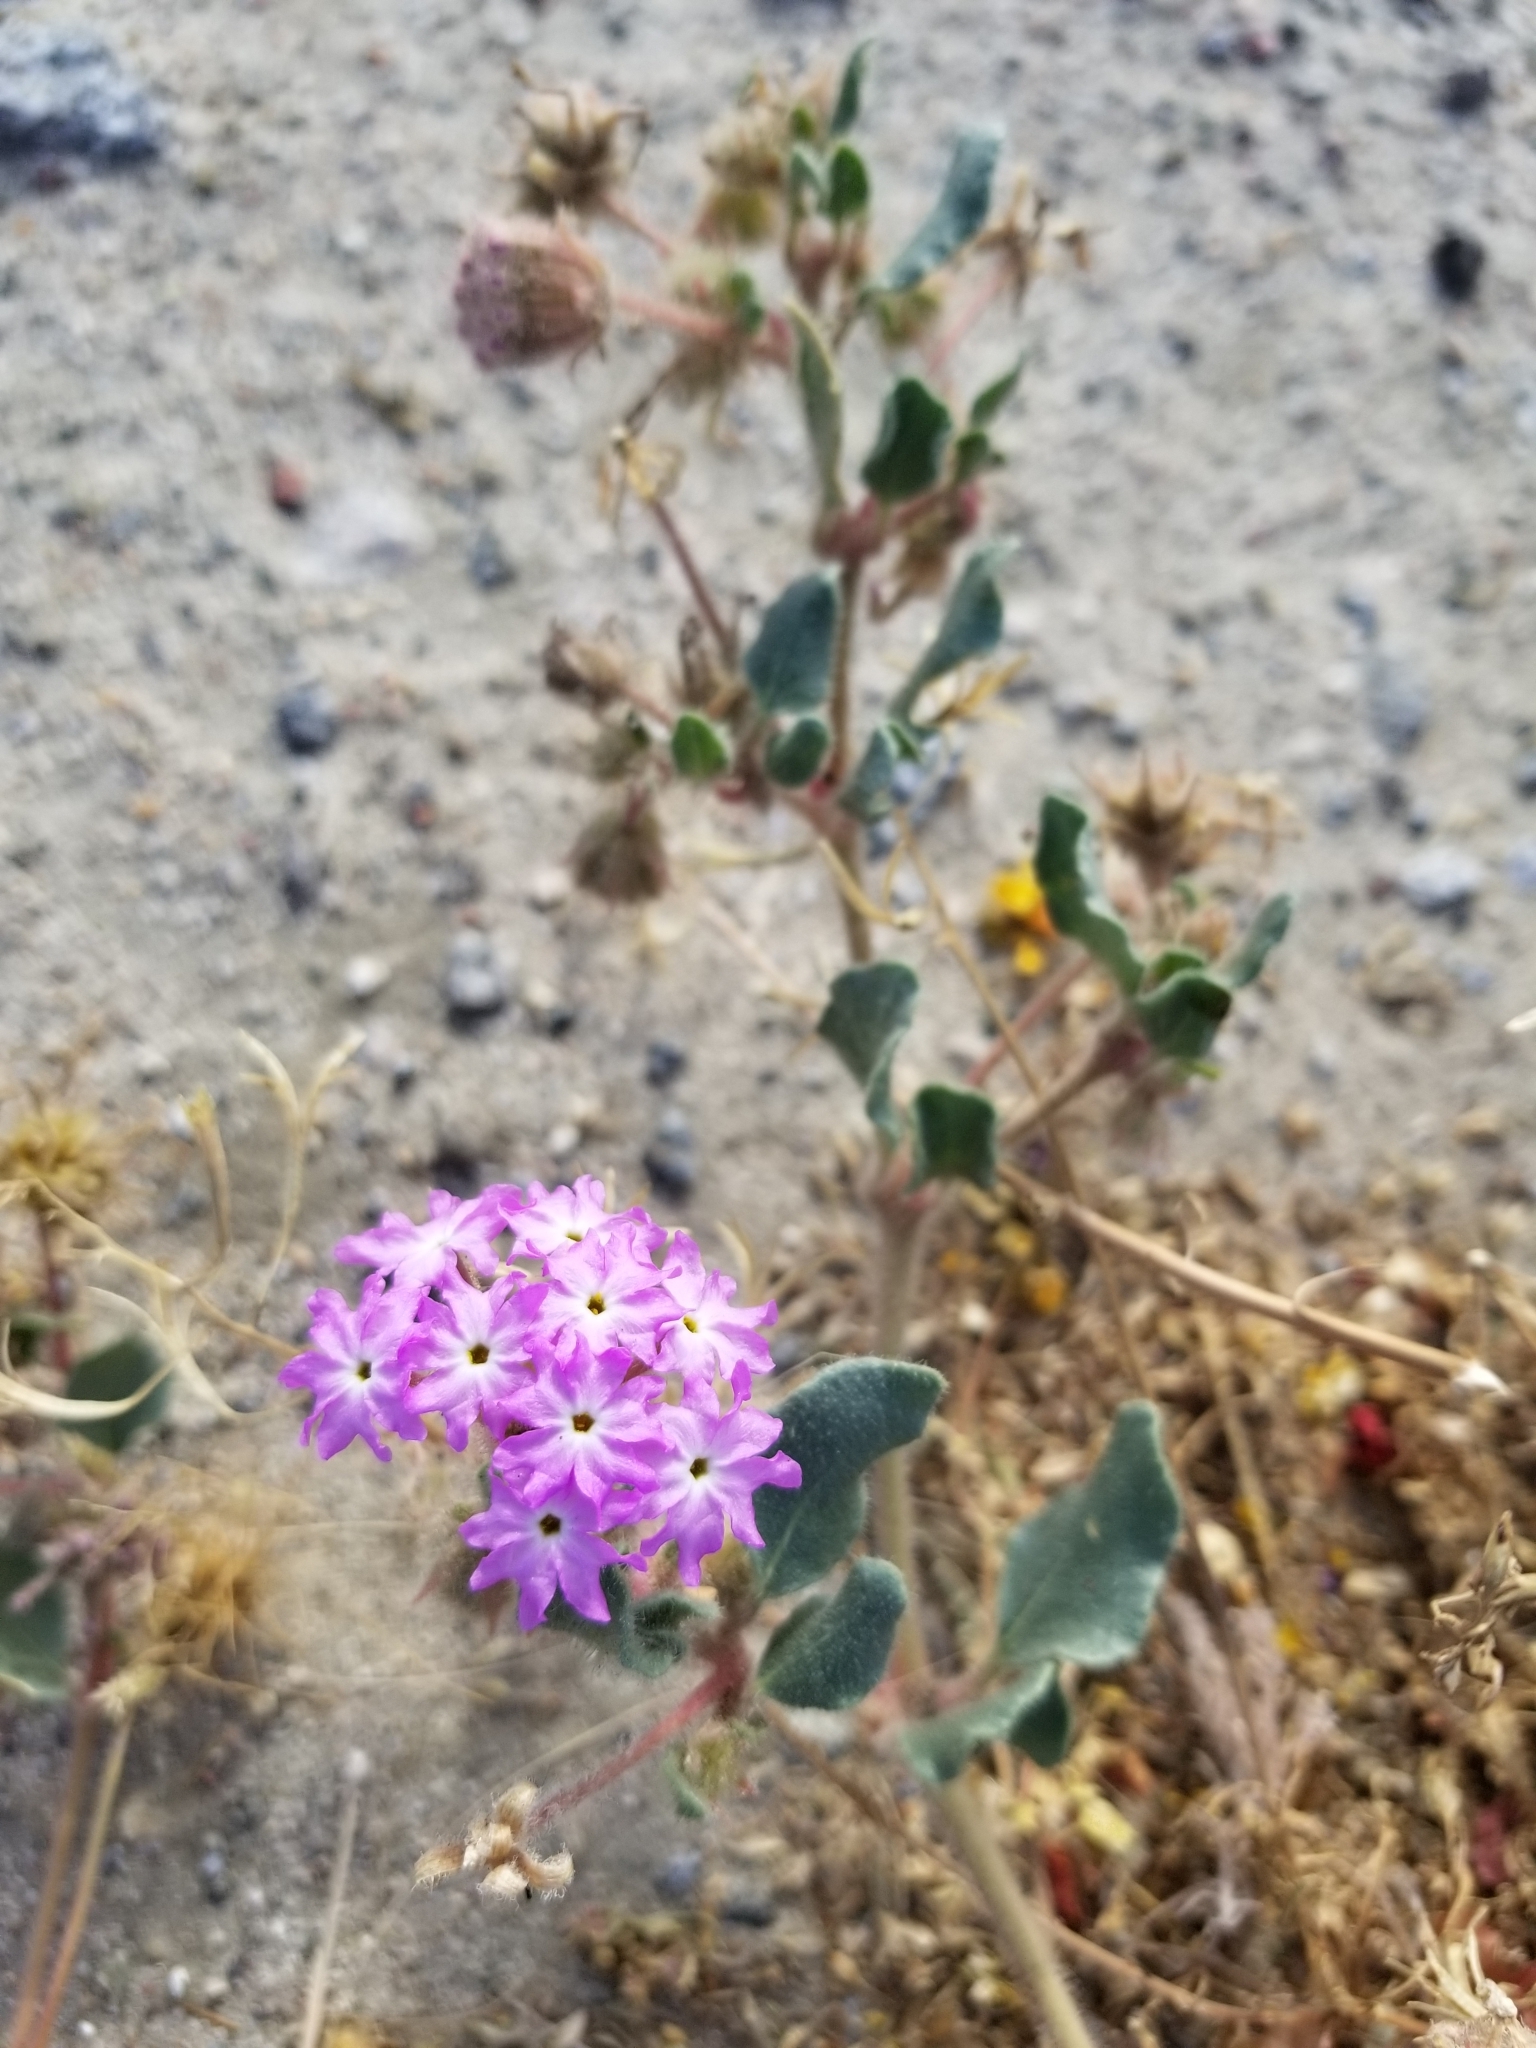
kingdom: Plantae
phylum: Tracheophyta
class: Magnoliopsida
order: Caryophyllales
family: Nyctaginaceae
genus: Abronia
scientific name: Abronia villosa
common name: Desert sand-verbena
